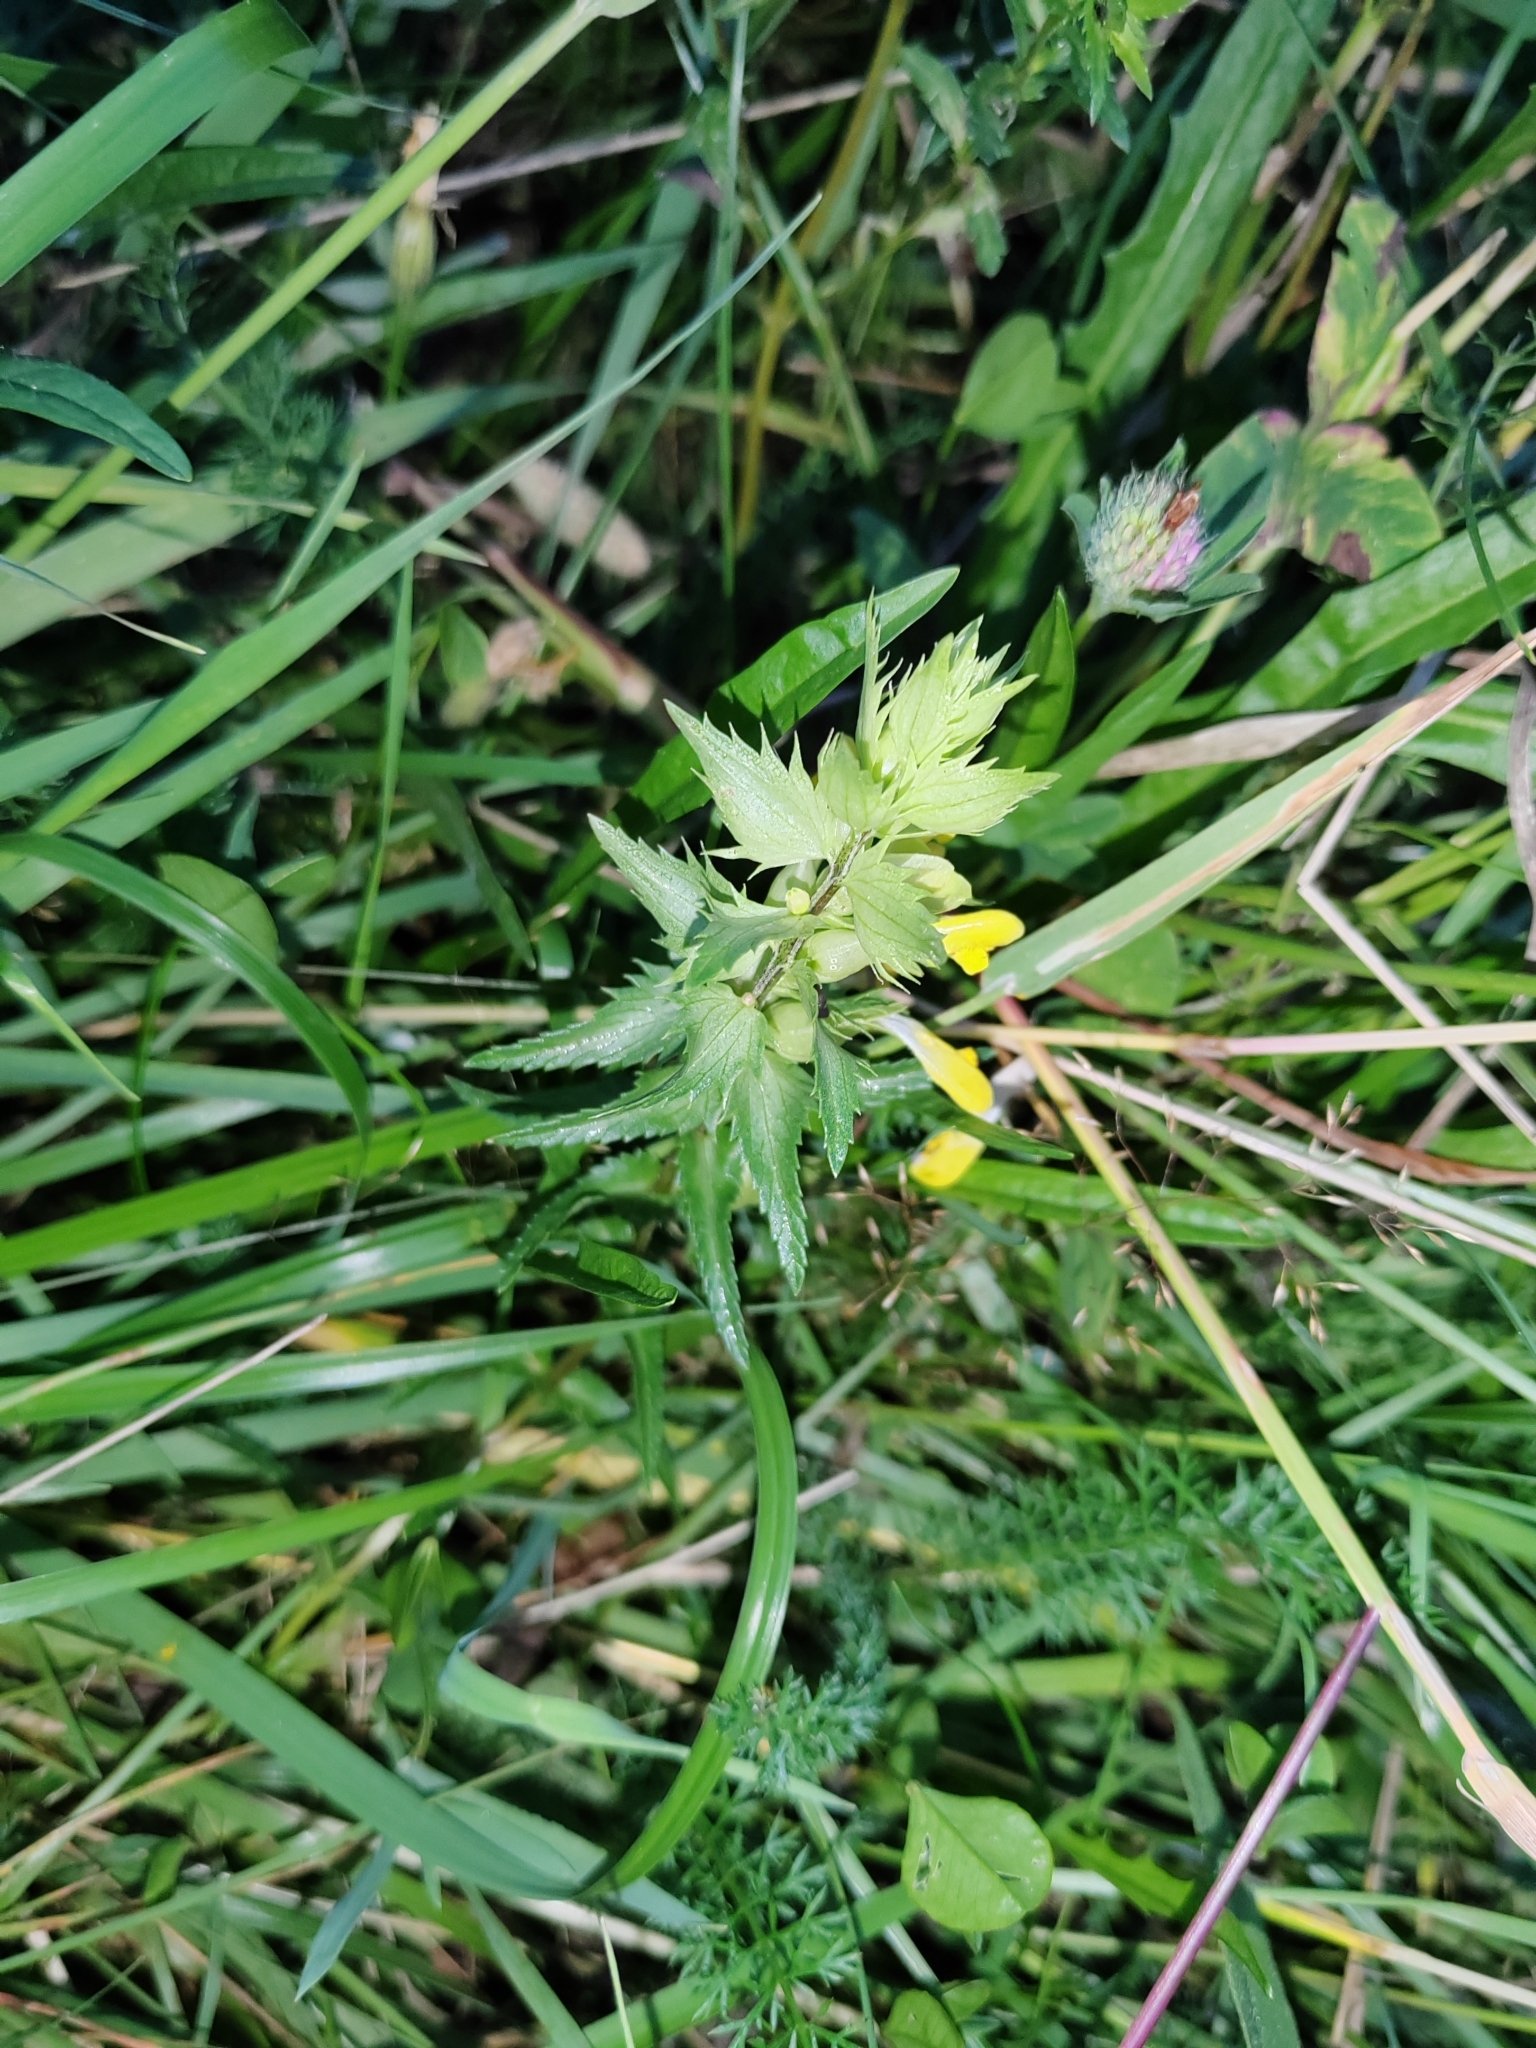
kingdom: Plantae
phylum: Tracheophyta
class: Magnoliopsida
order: Lamiales
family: Orobanchaceae
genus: Rhinanthus
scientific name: Rhinanthus serotinus
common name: Late-flowering yellow rattle
